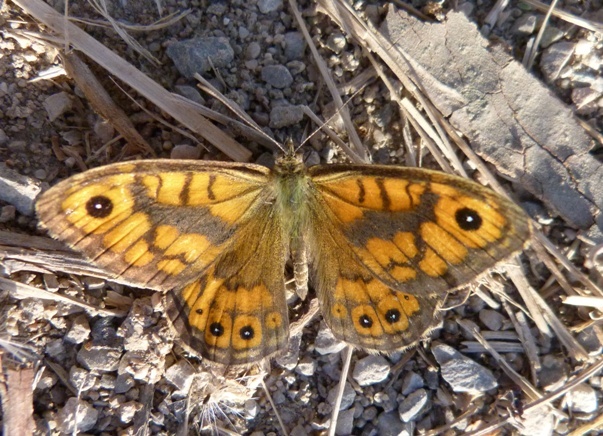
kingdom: Animalia
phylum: Arthropoda
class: Insecta
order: Lepidoptera
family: Nymphalidae
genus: Pararge
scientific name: Pararge Lasiommata megera
